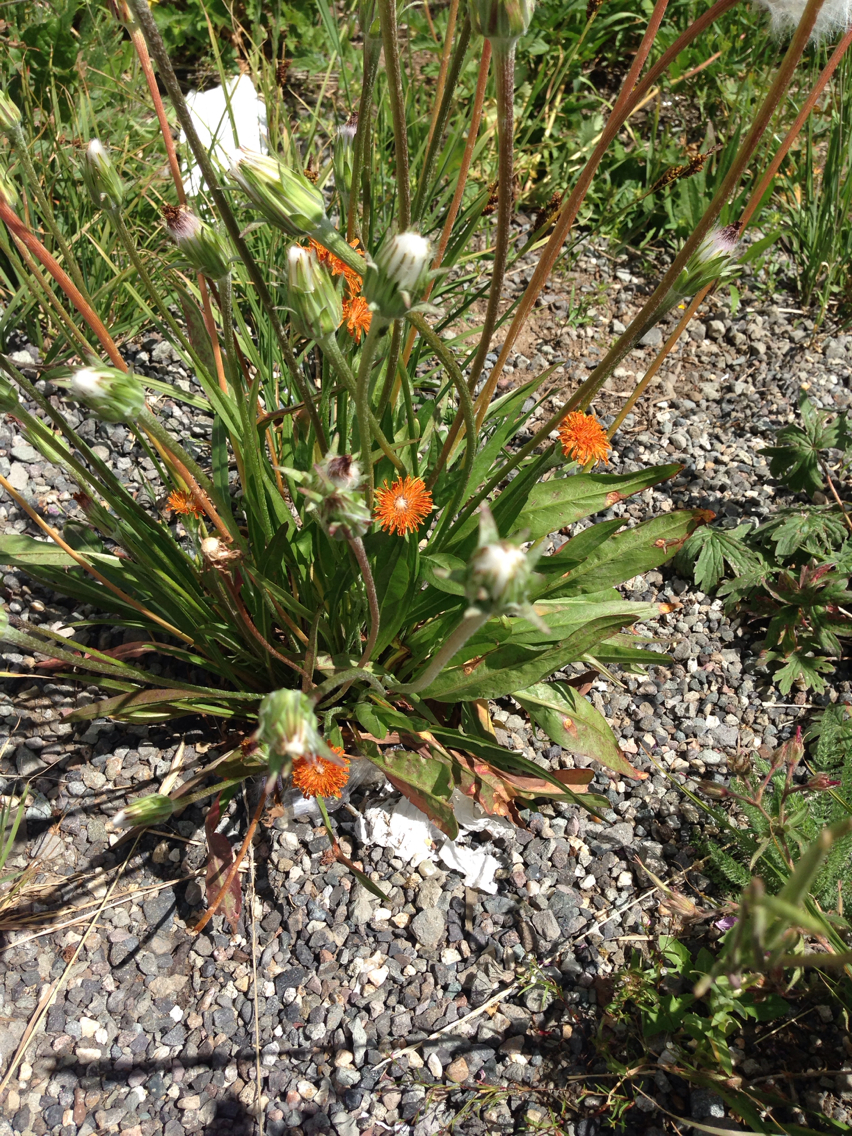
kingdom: Plantae
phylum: Tracheophyta
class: Magnoliopsida
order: Asterales
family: Asteraceae
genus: Agoseris
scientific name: Agoseris aurantiaca
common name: Mountain agoseris
